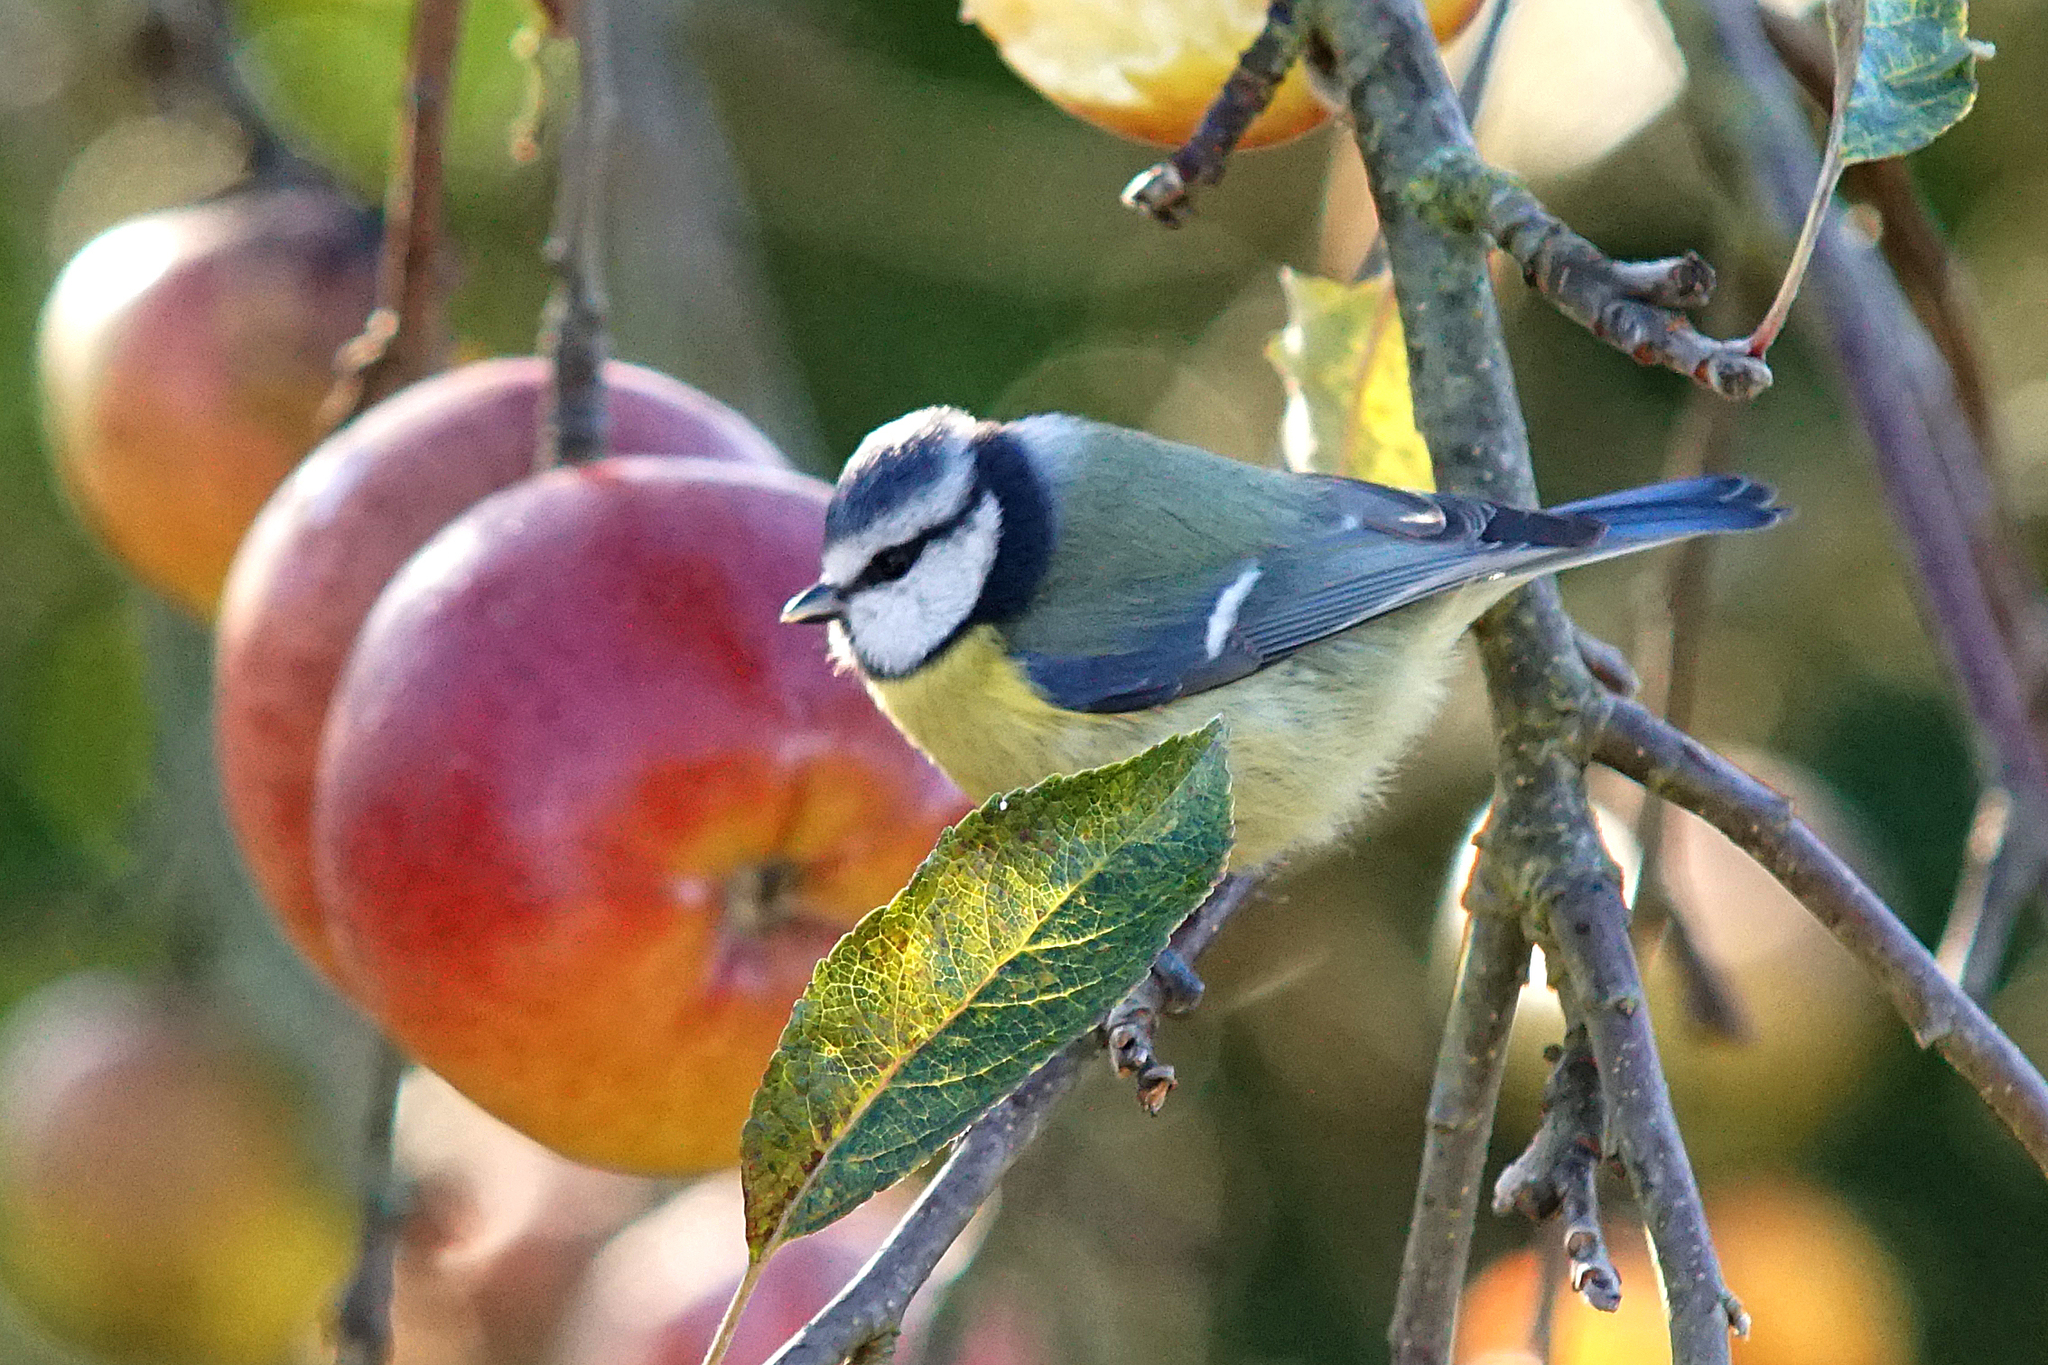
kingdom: Animalia
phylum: Chordata
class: Aves
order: Passeriformes
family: Paridae
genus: Cyanistes
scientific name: Cyanistes caeruleus
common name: Eurasian blue tit
